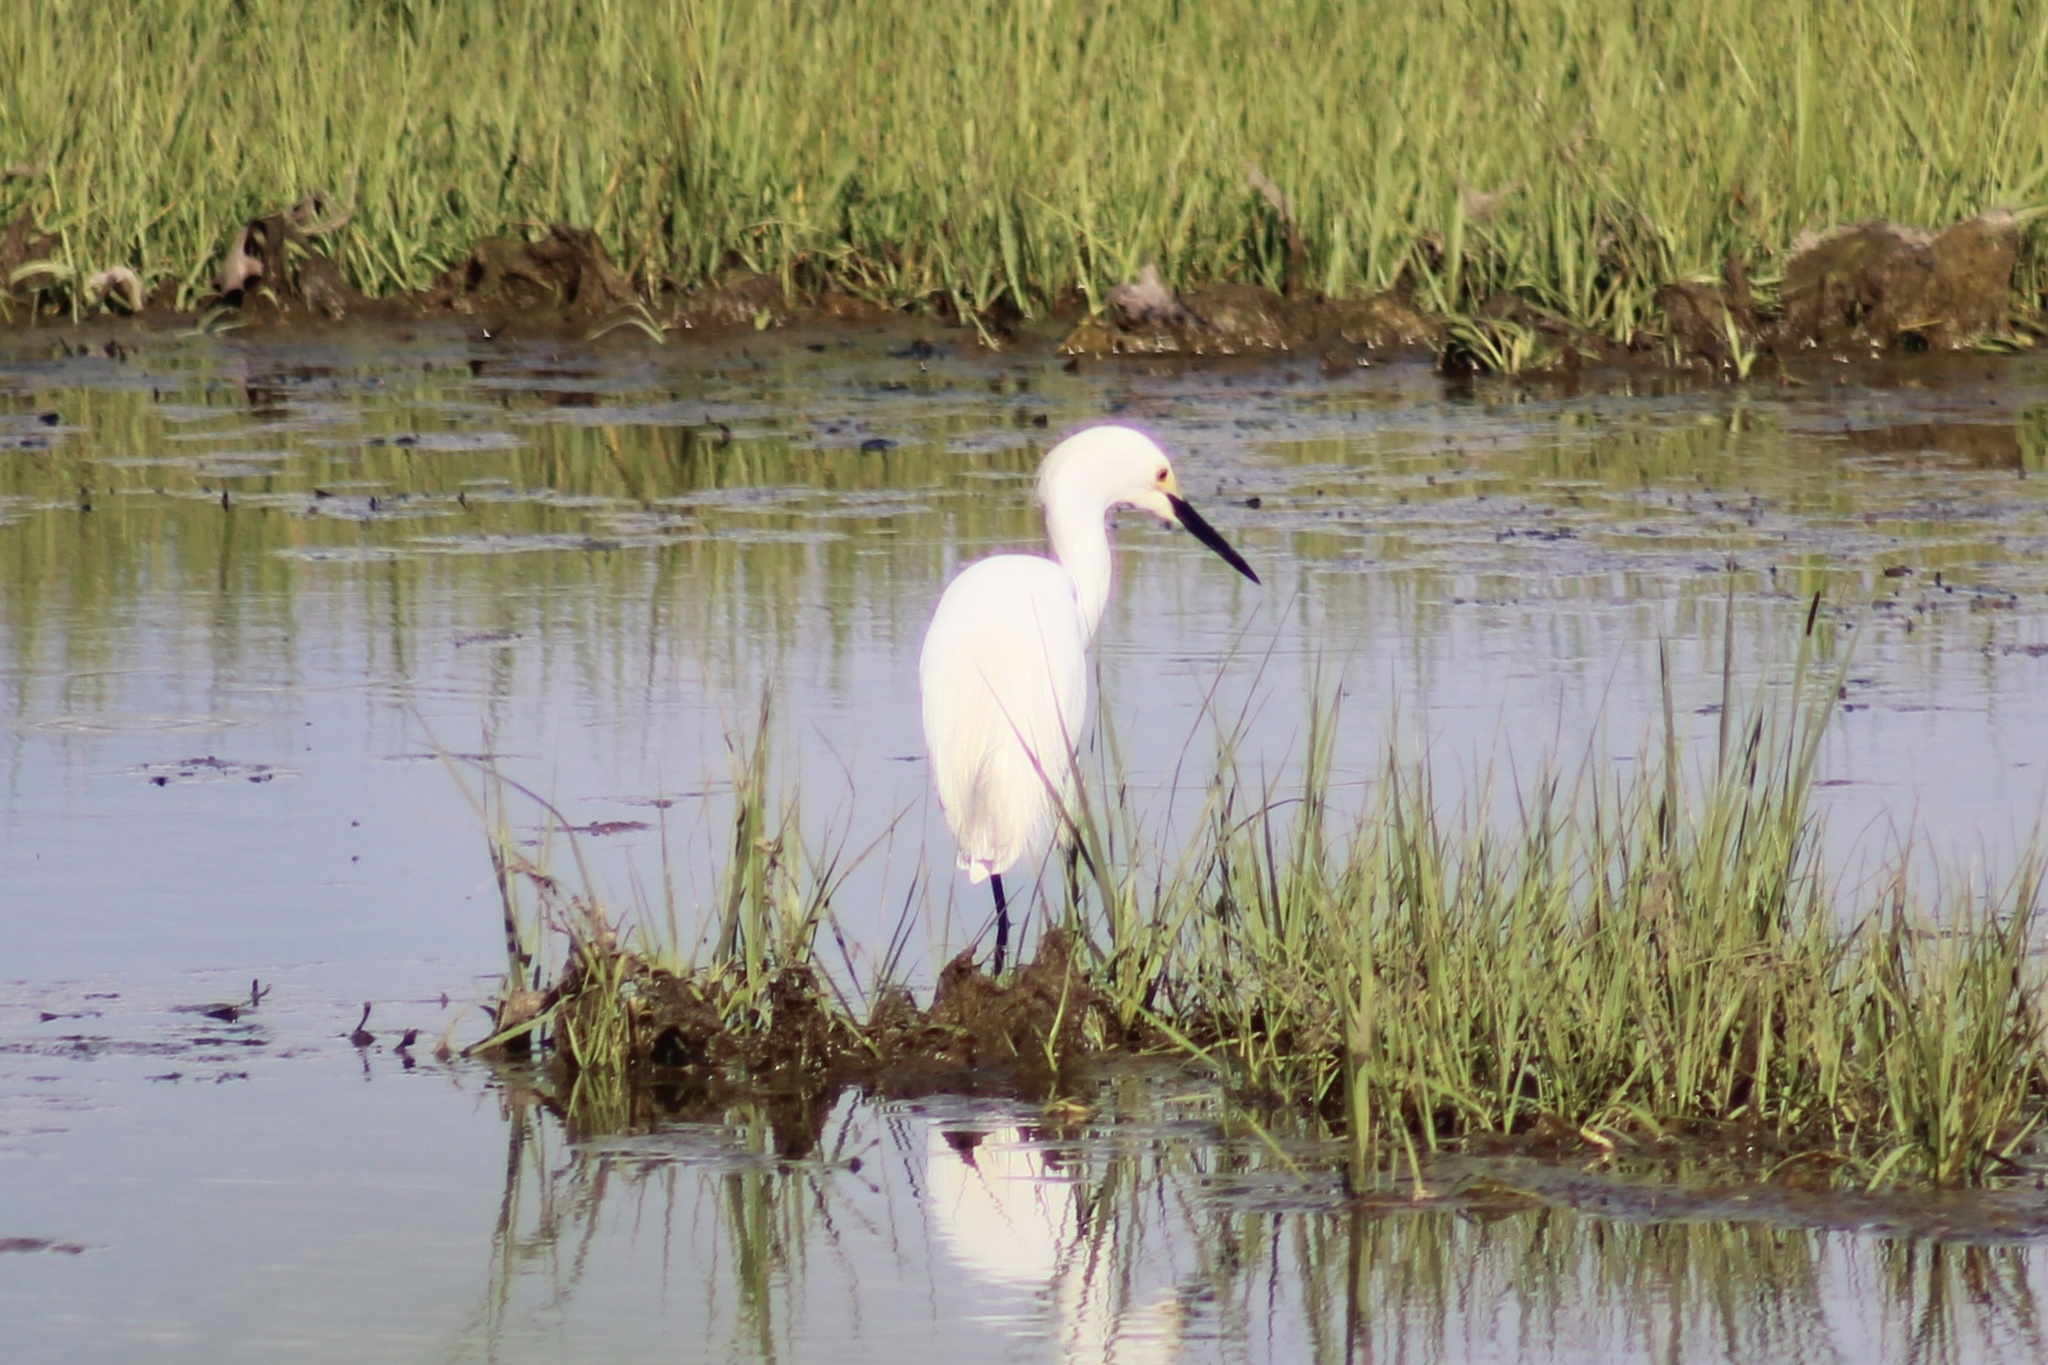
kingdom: Animalia
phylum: Chordata
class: Aves
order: Pelecaniformes
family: Ardeidae
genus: Egretta
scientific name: Egretta thula
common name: Snowy egret
